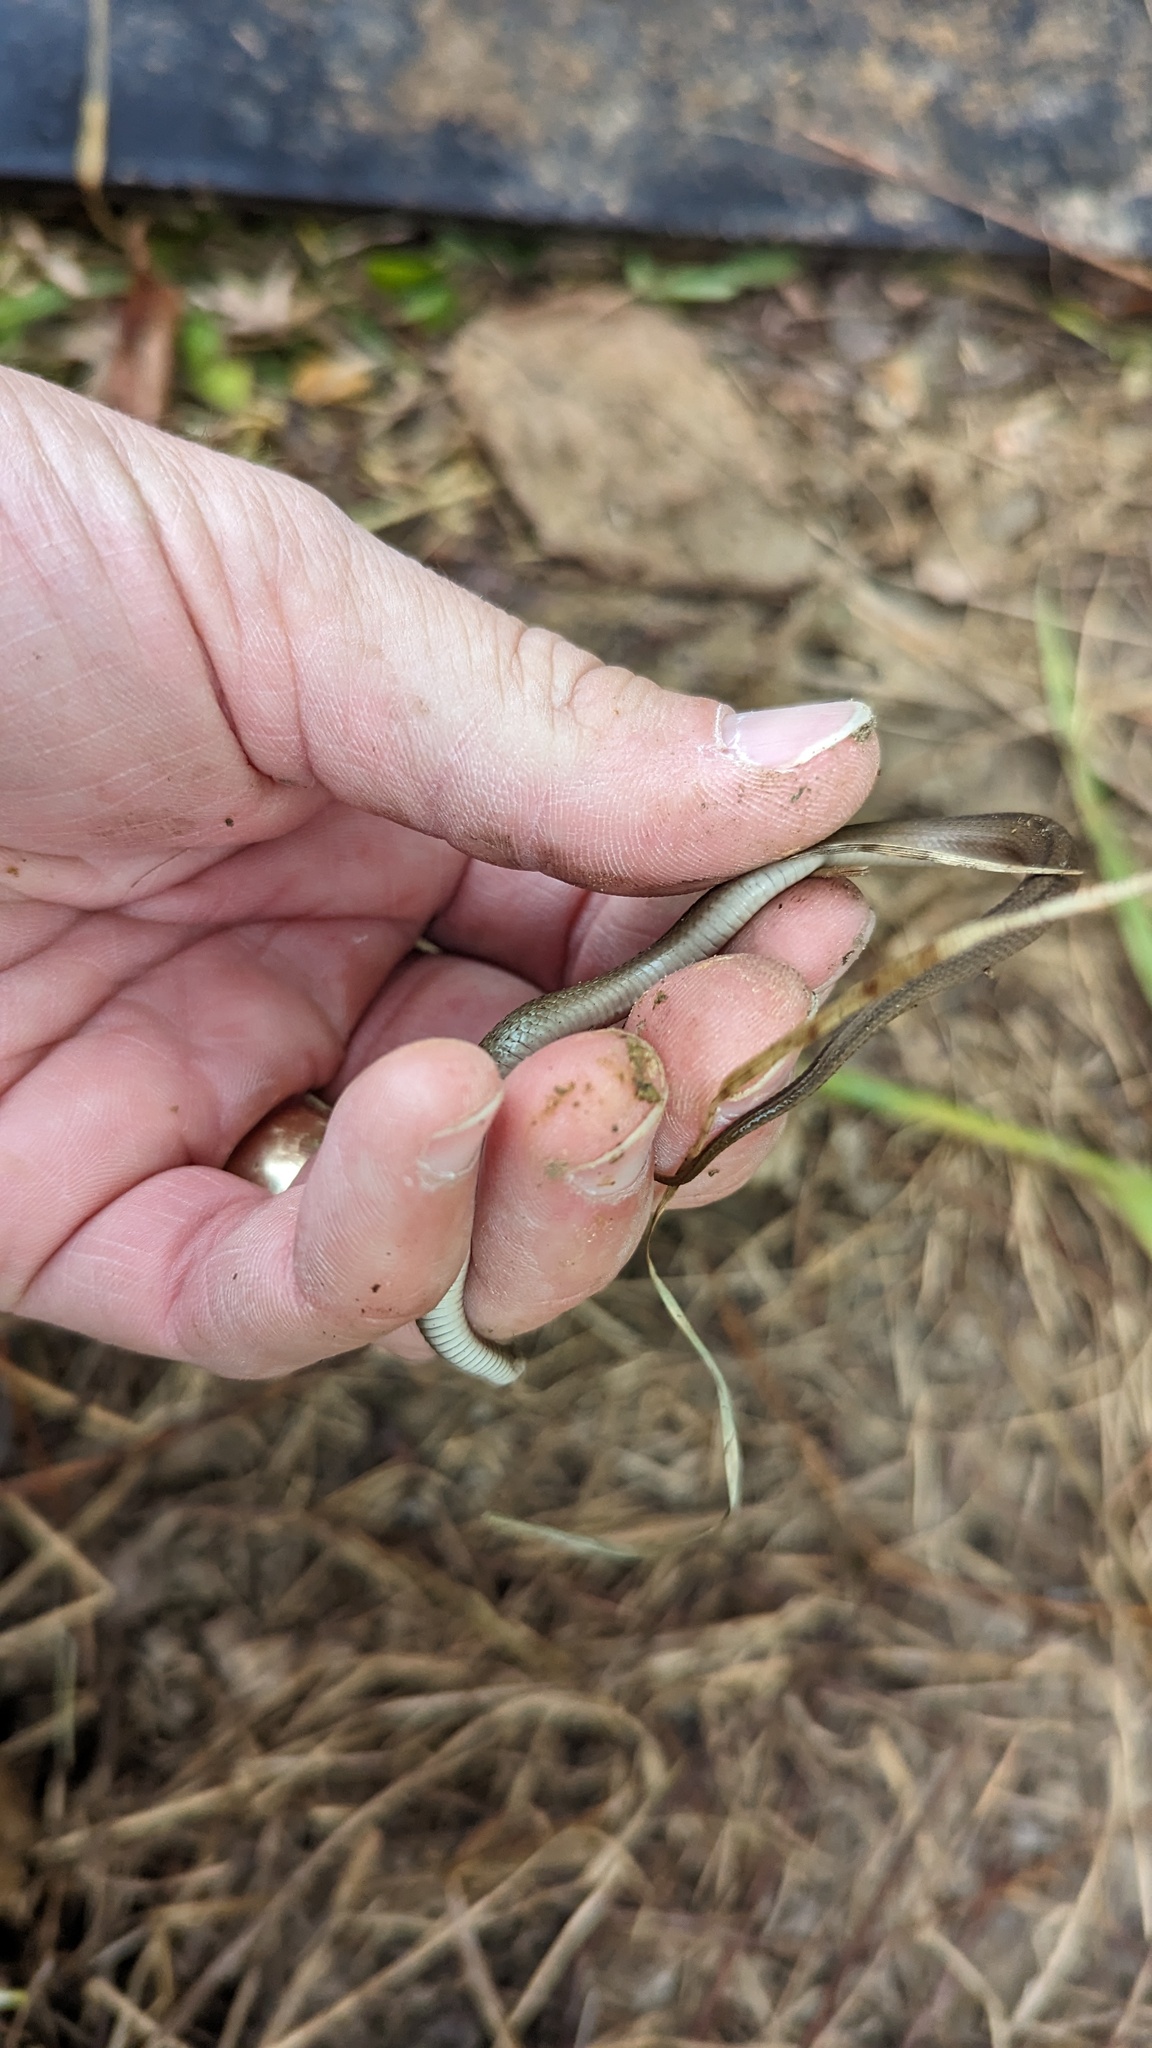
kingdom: Animalia
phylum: Chordata
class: Squamata
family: Colubridae
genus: Storeria
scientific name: Storeria dekayi
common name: (dekay’s) brown snake
